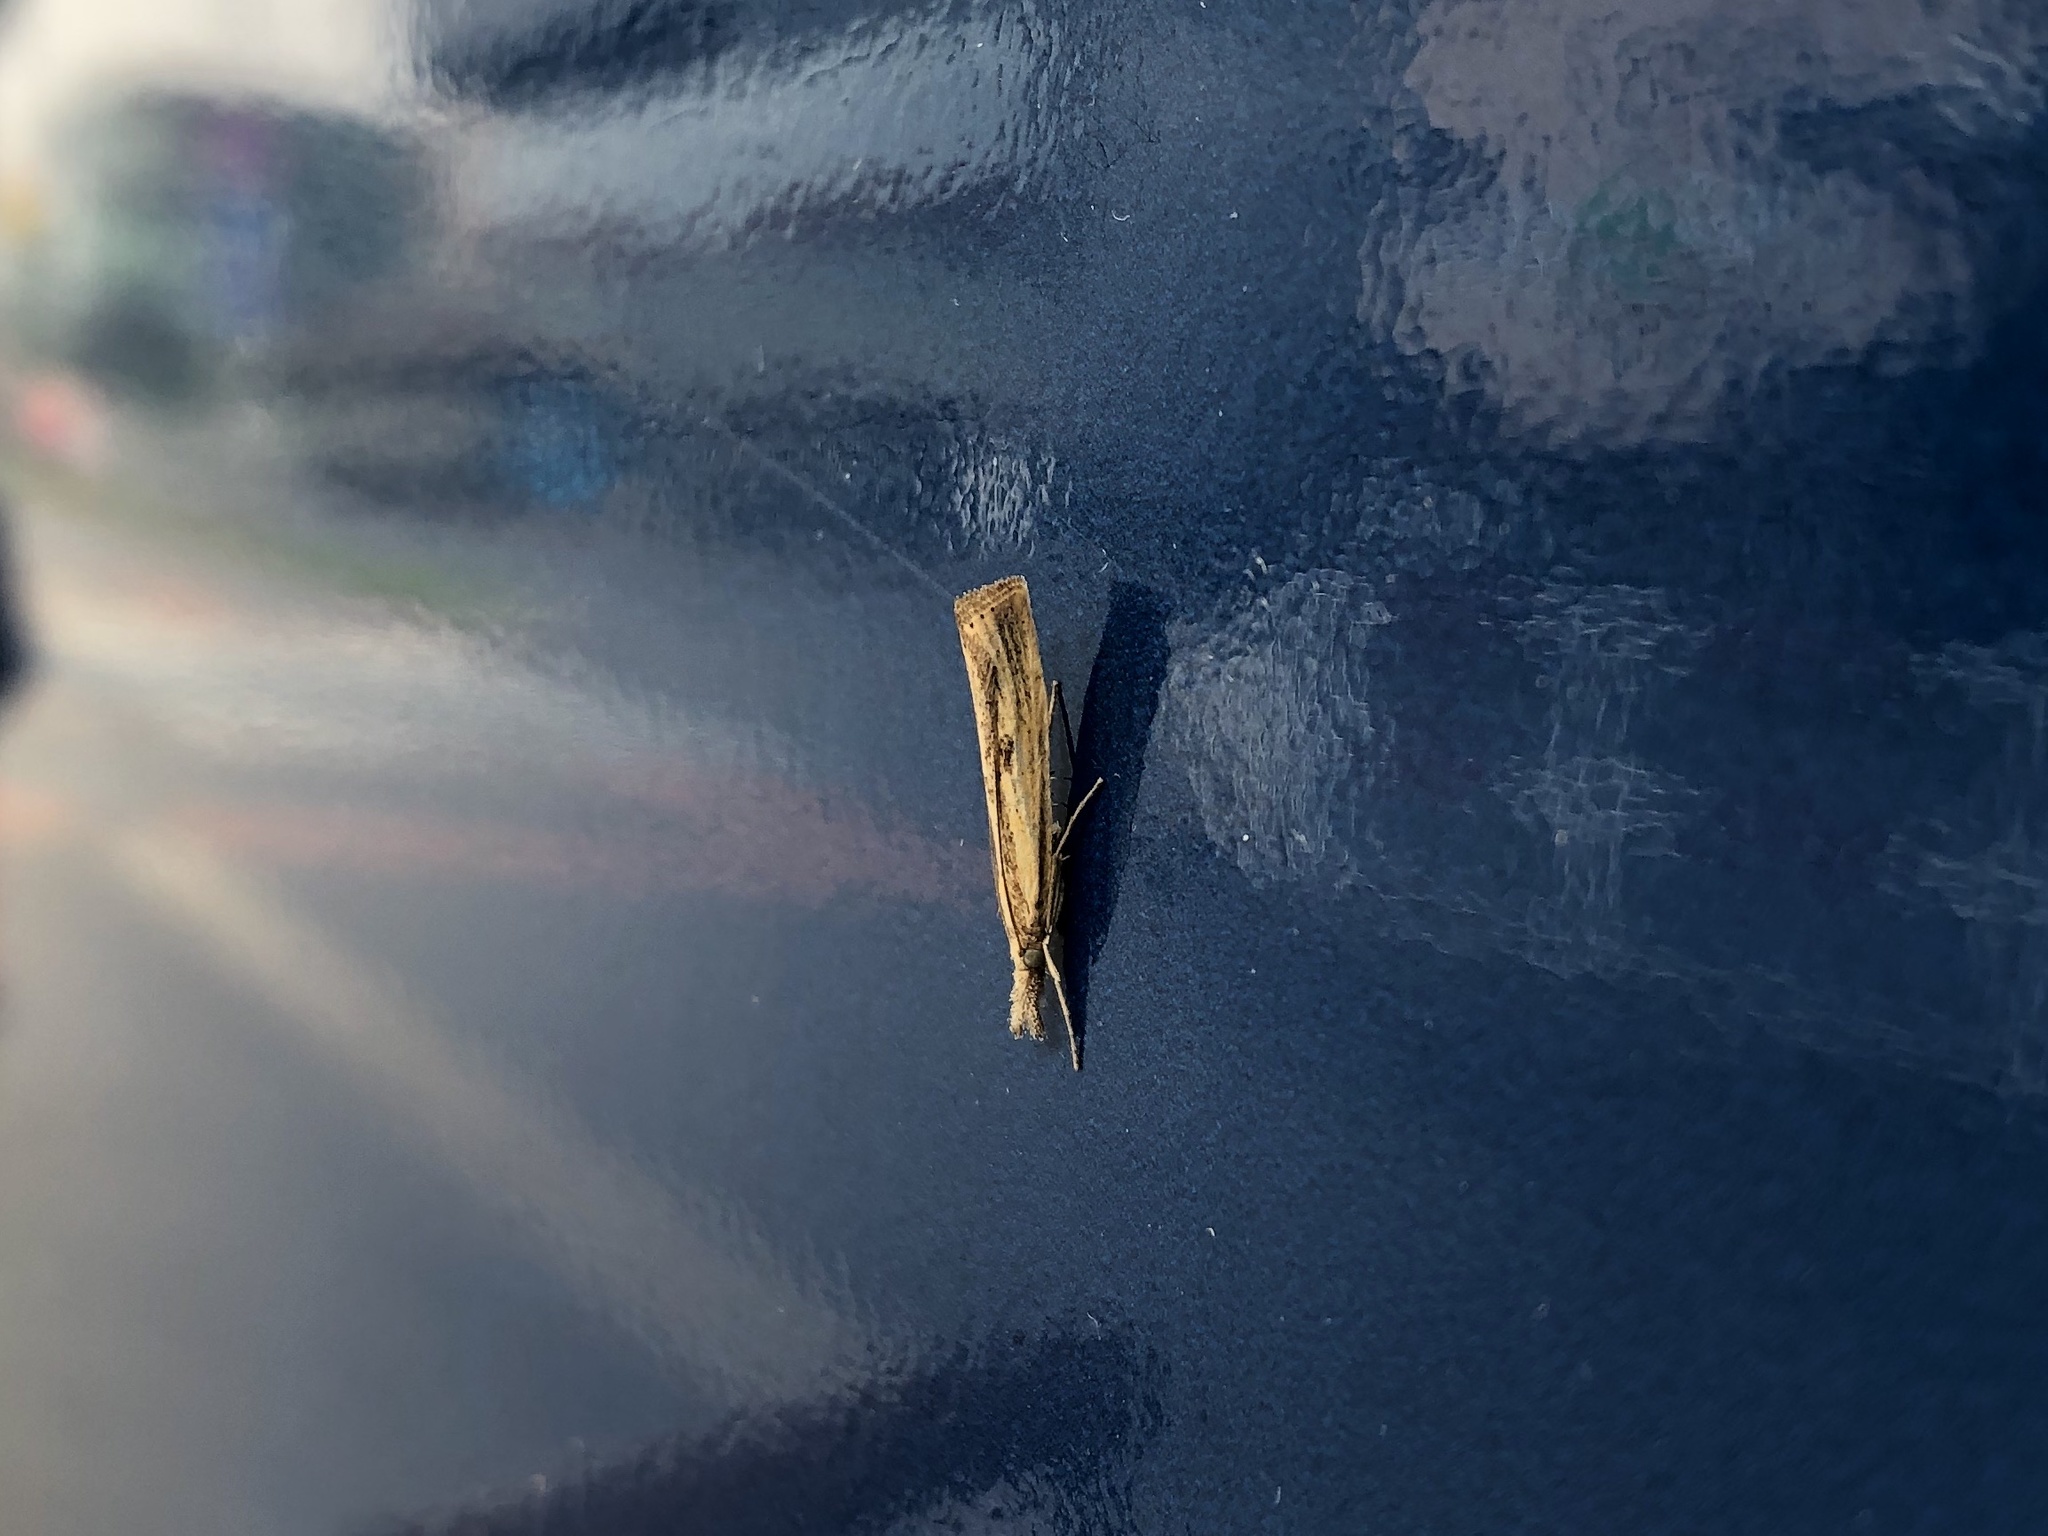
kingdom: Animalia
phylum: Arthropoda
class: Insecta
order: Lepidoptera
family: Crambidae
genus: Agriphila
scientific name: Agriphila inquinatella
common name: Barred grass-veneer
